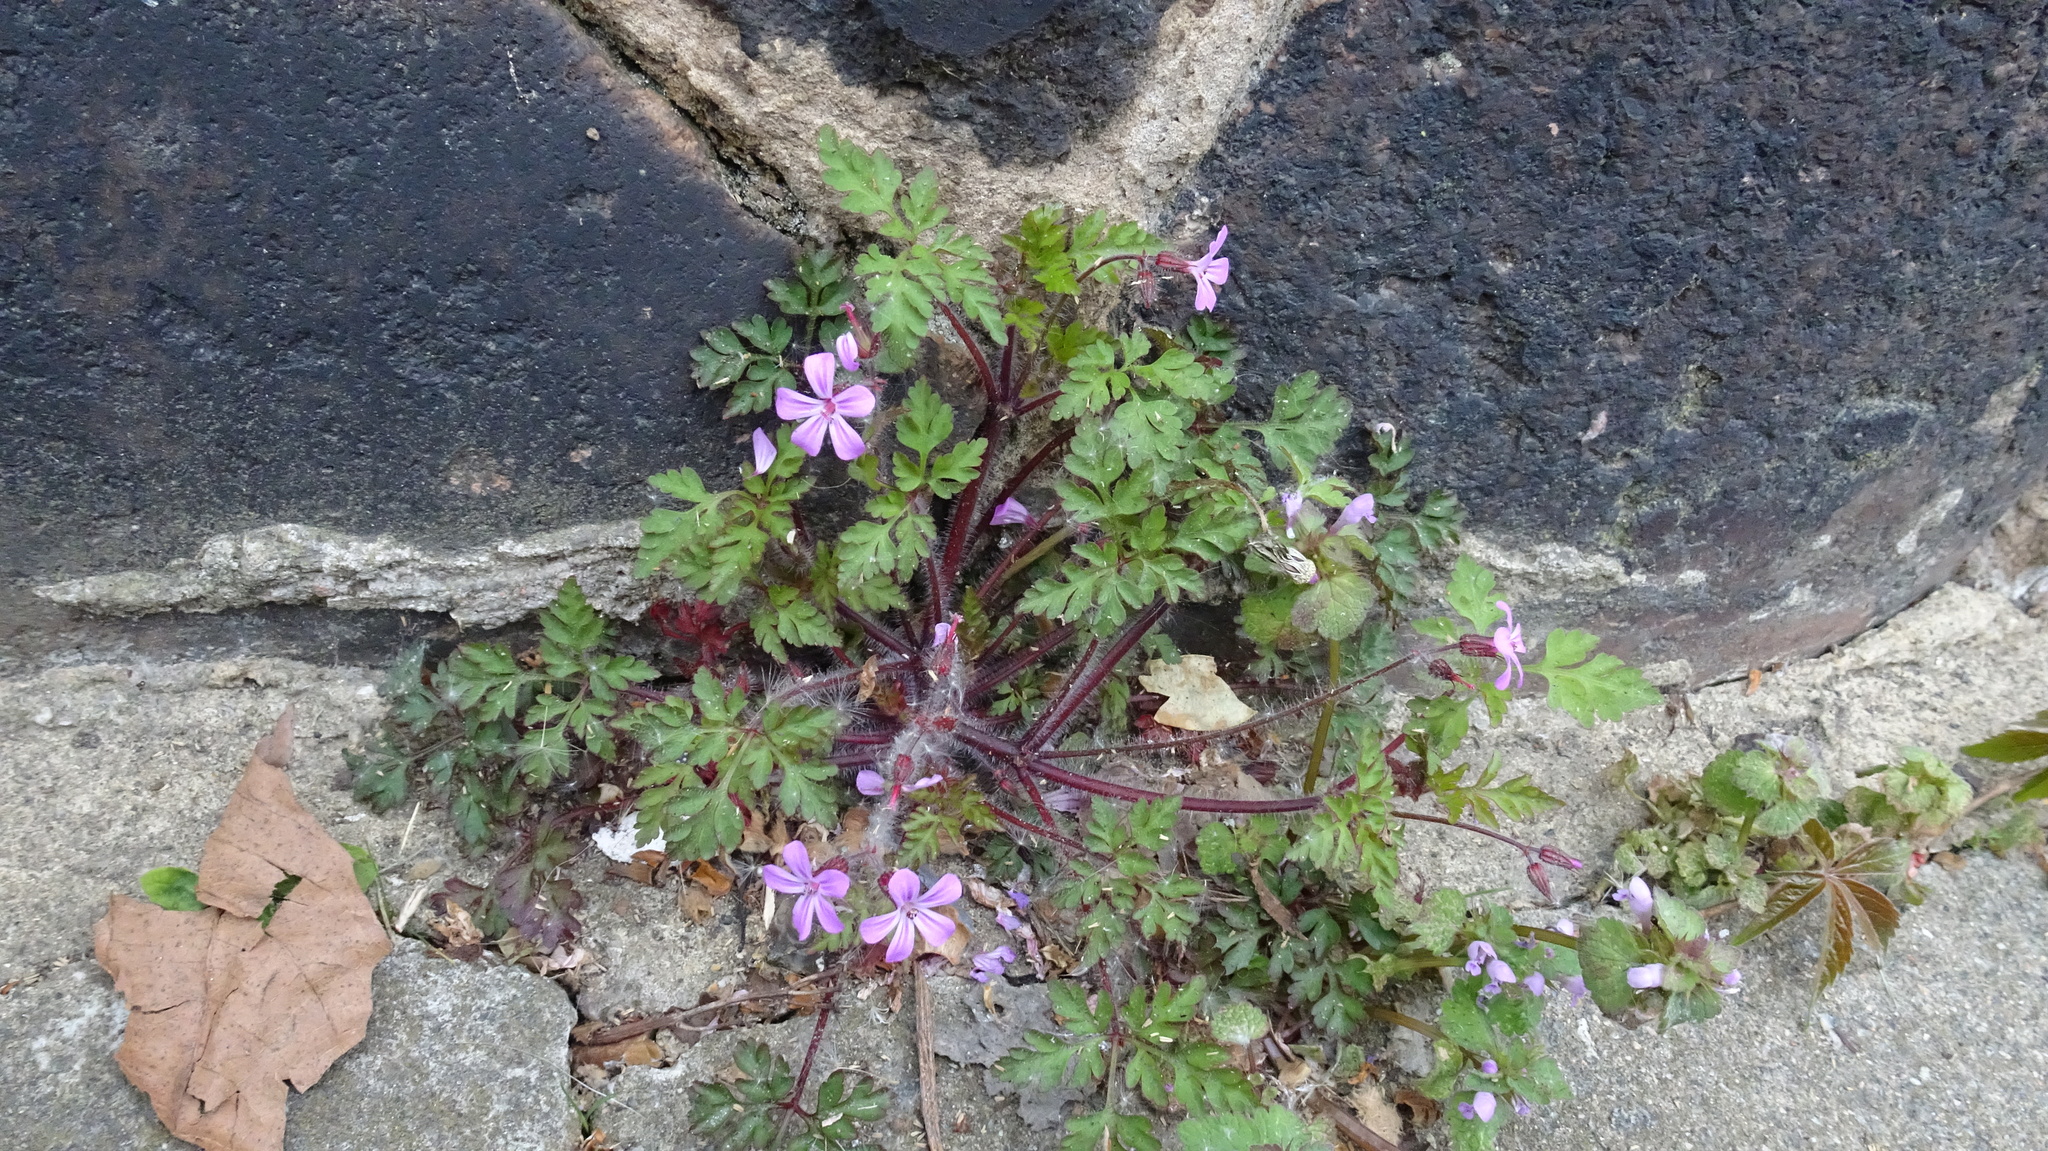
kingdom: Plantae
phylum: Tracheophyta
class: Magnoliopsida
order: Geraniales
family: Geraniaceae
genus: Geranium
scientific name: Geranium robertianum
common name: Herb-robert
